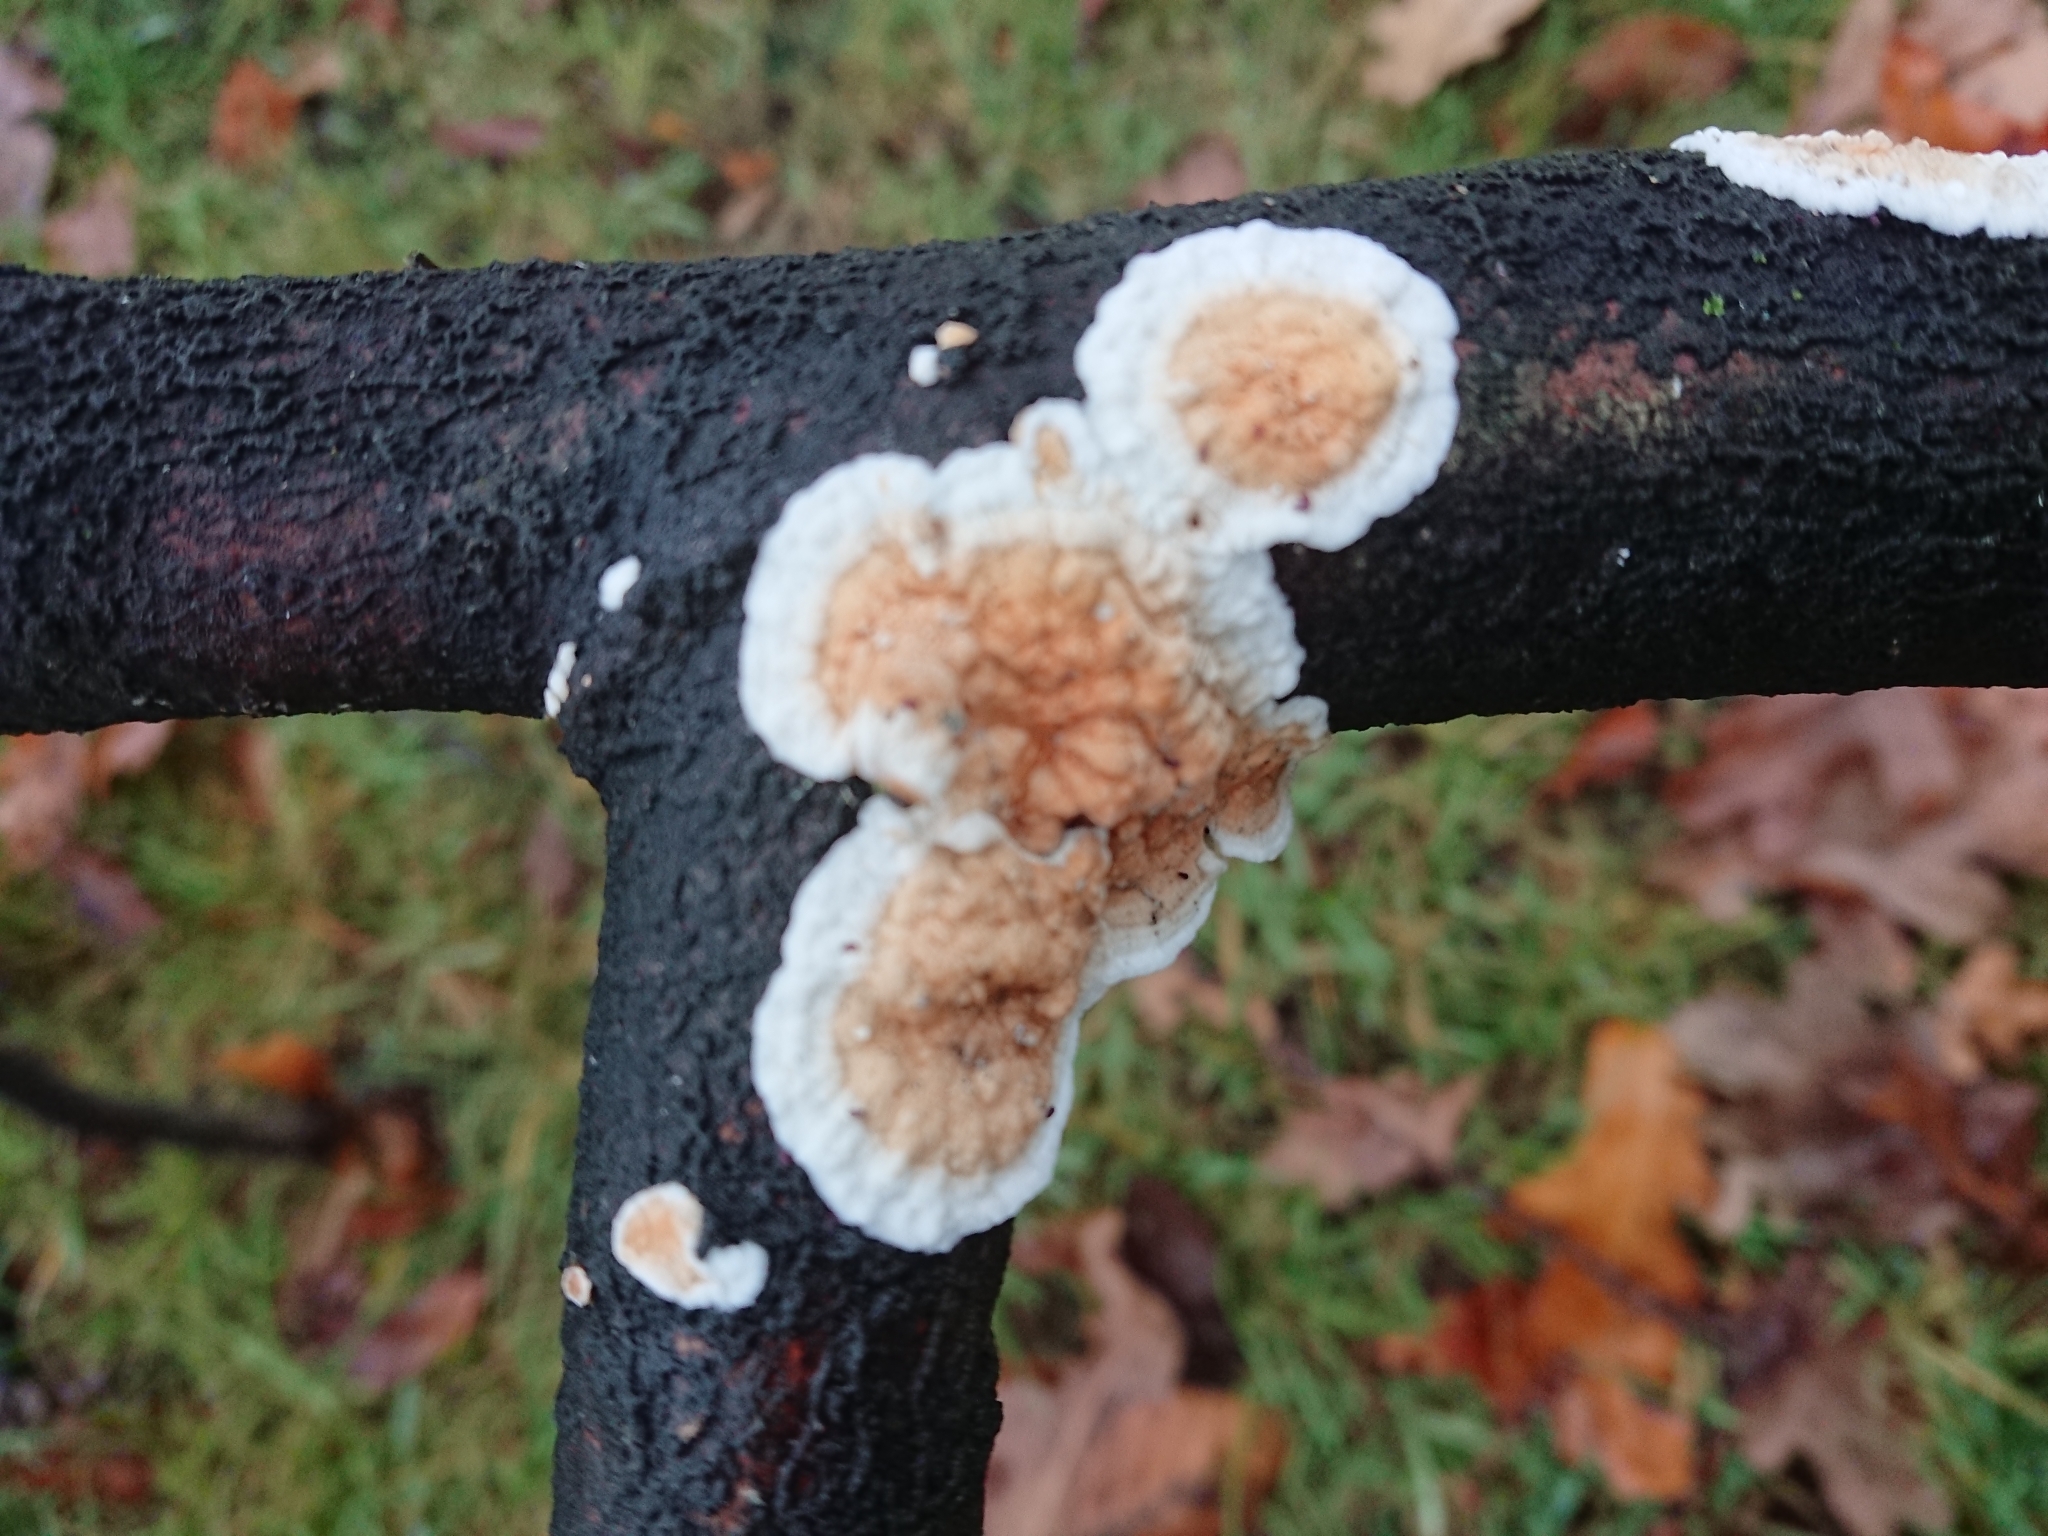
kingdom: Fungi
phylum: Basidiomycota
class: Agaricomycetes
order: Polyporales
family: Irpicaceae
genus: Byssomerulius
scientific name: Byssomerulius corium
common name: Netted crust
